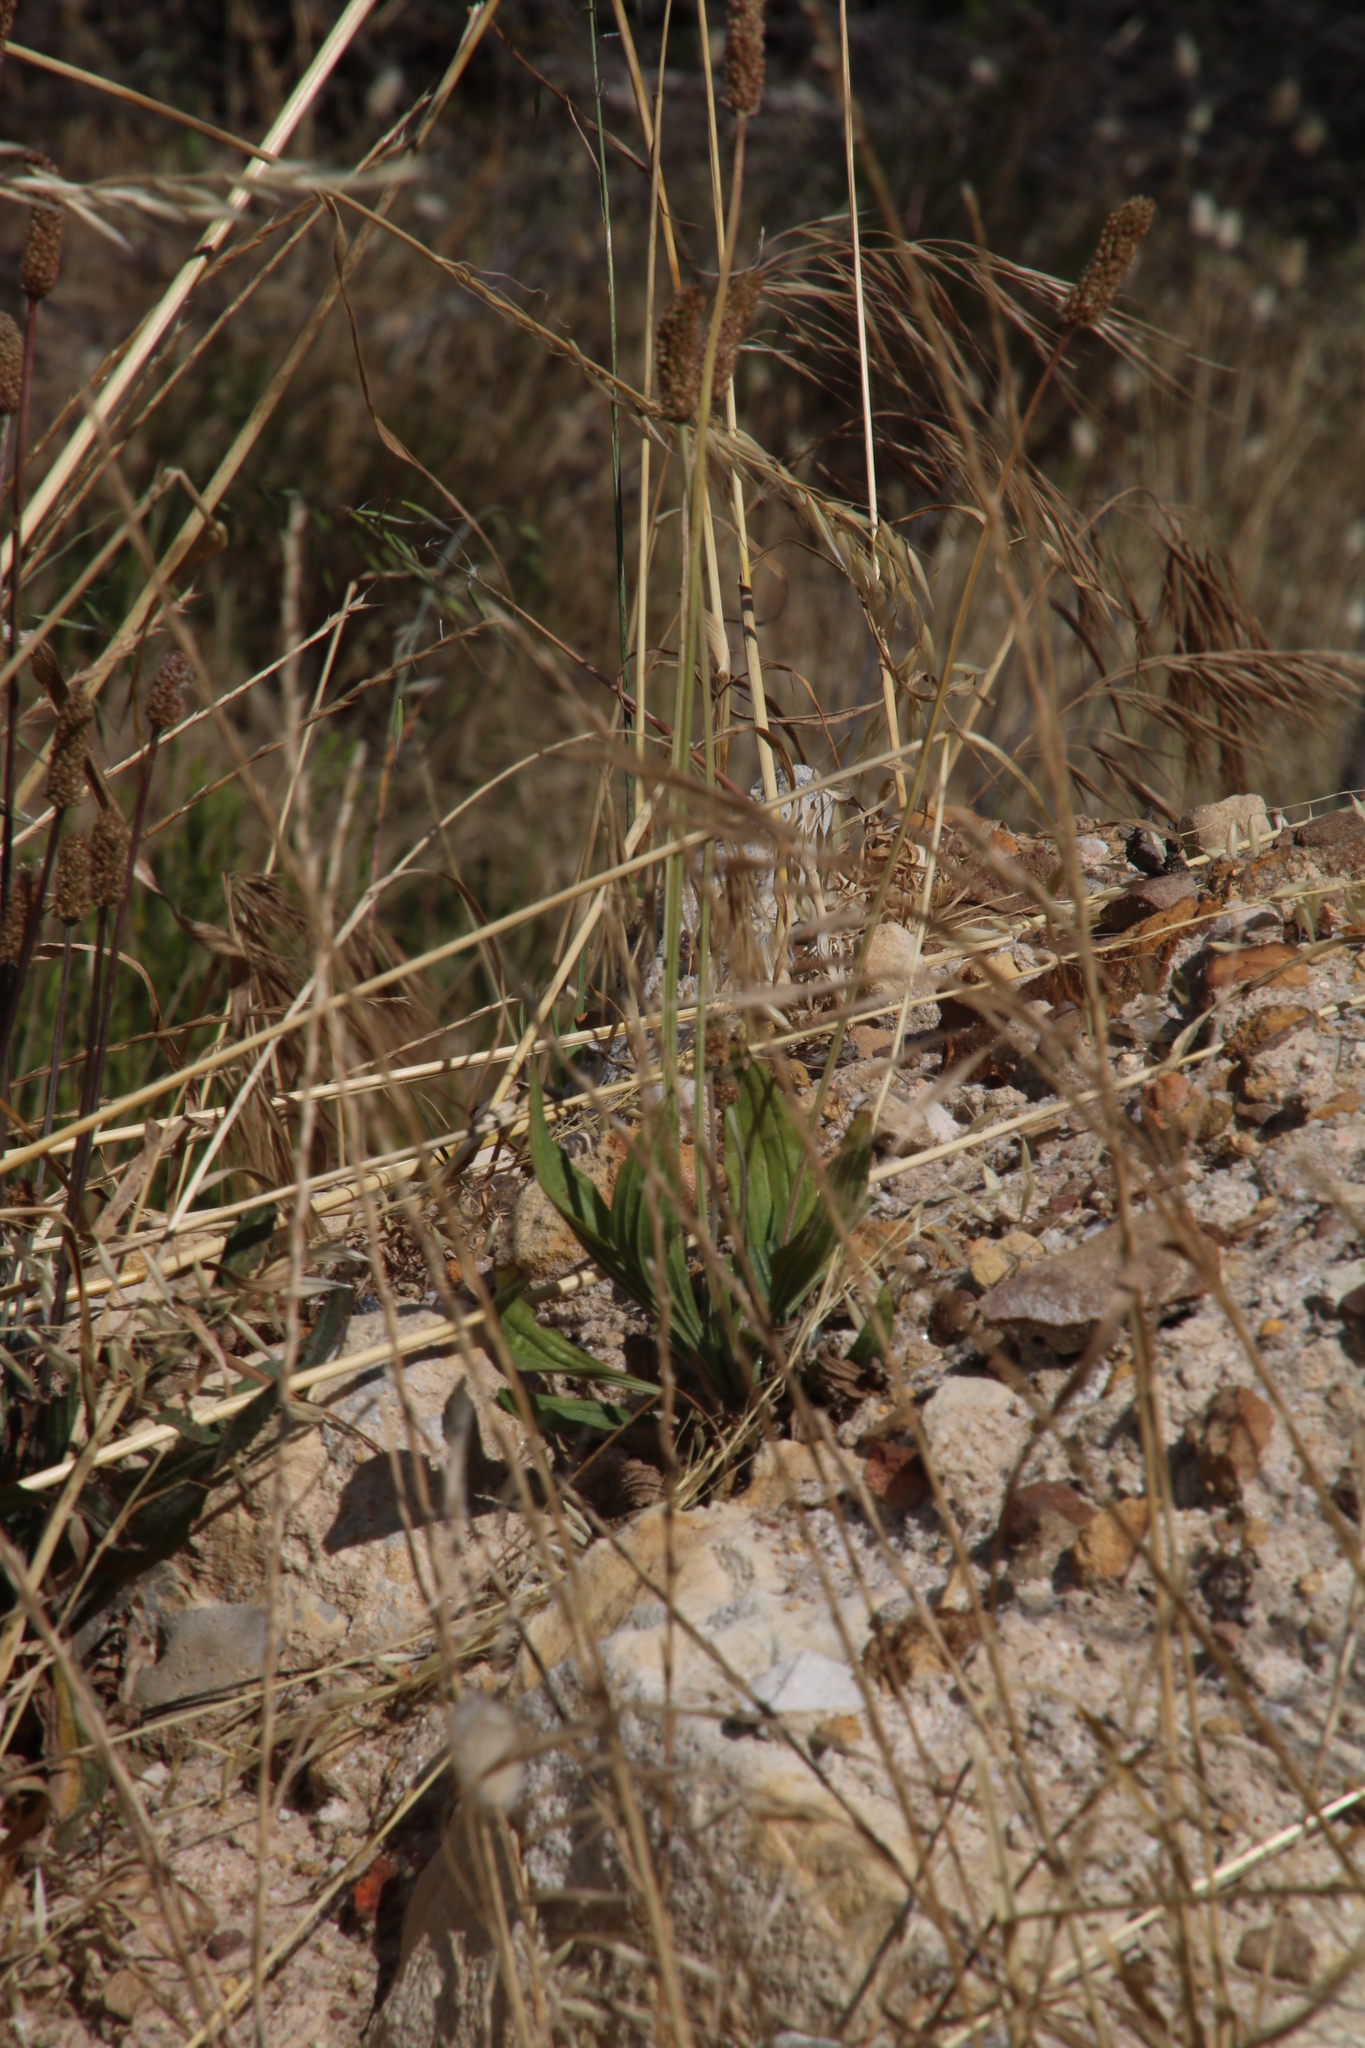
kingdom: Plantae
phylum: Tracheophyta
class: Magnoliopsida
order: Lamiales
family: Plantaginaceae
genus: Plantago
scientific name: Plantago lanceolata
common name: Ribwort plantain
